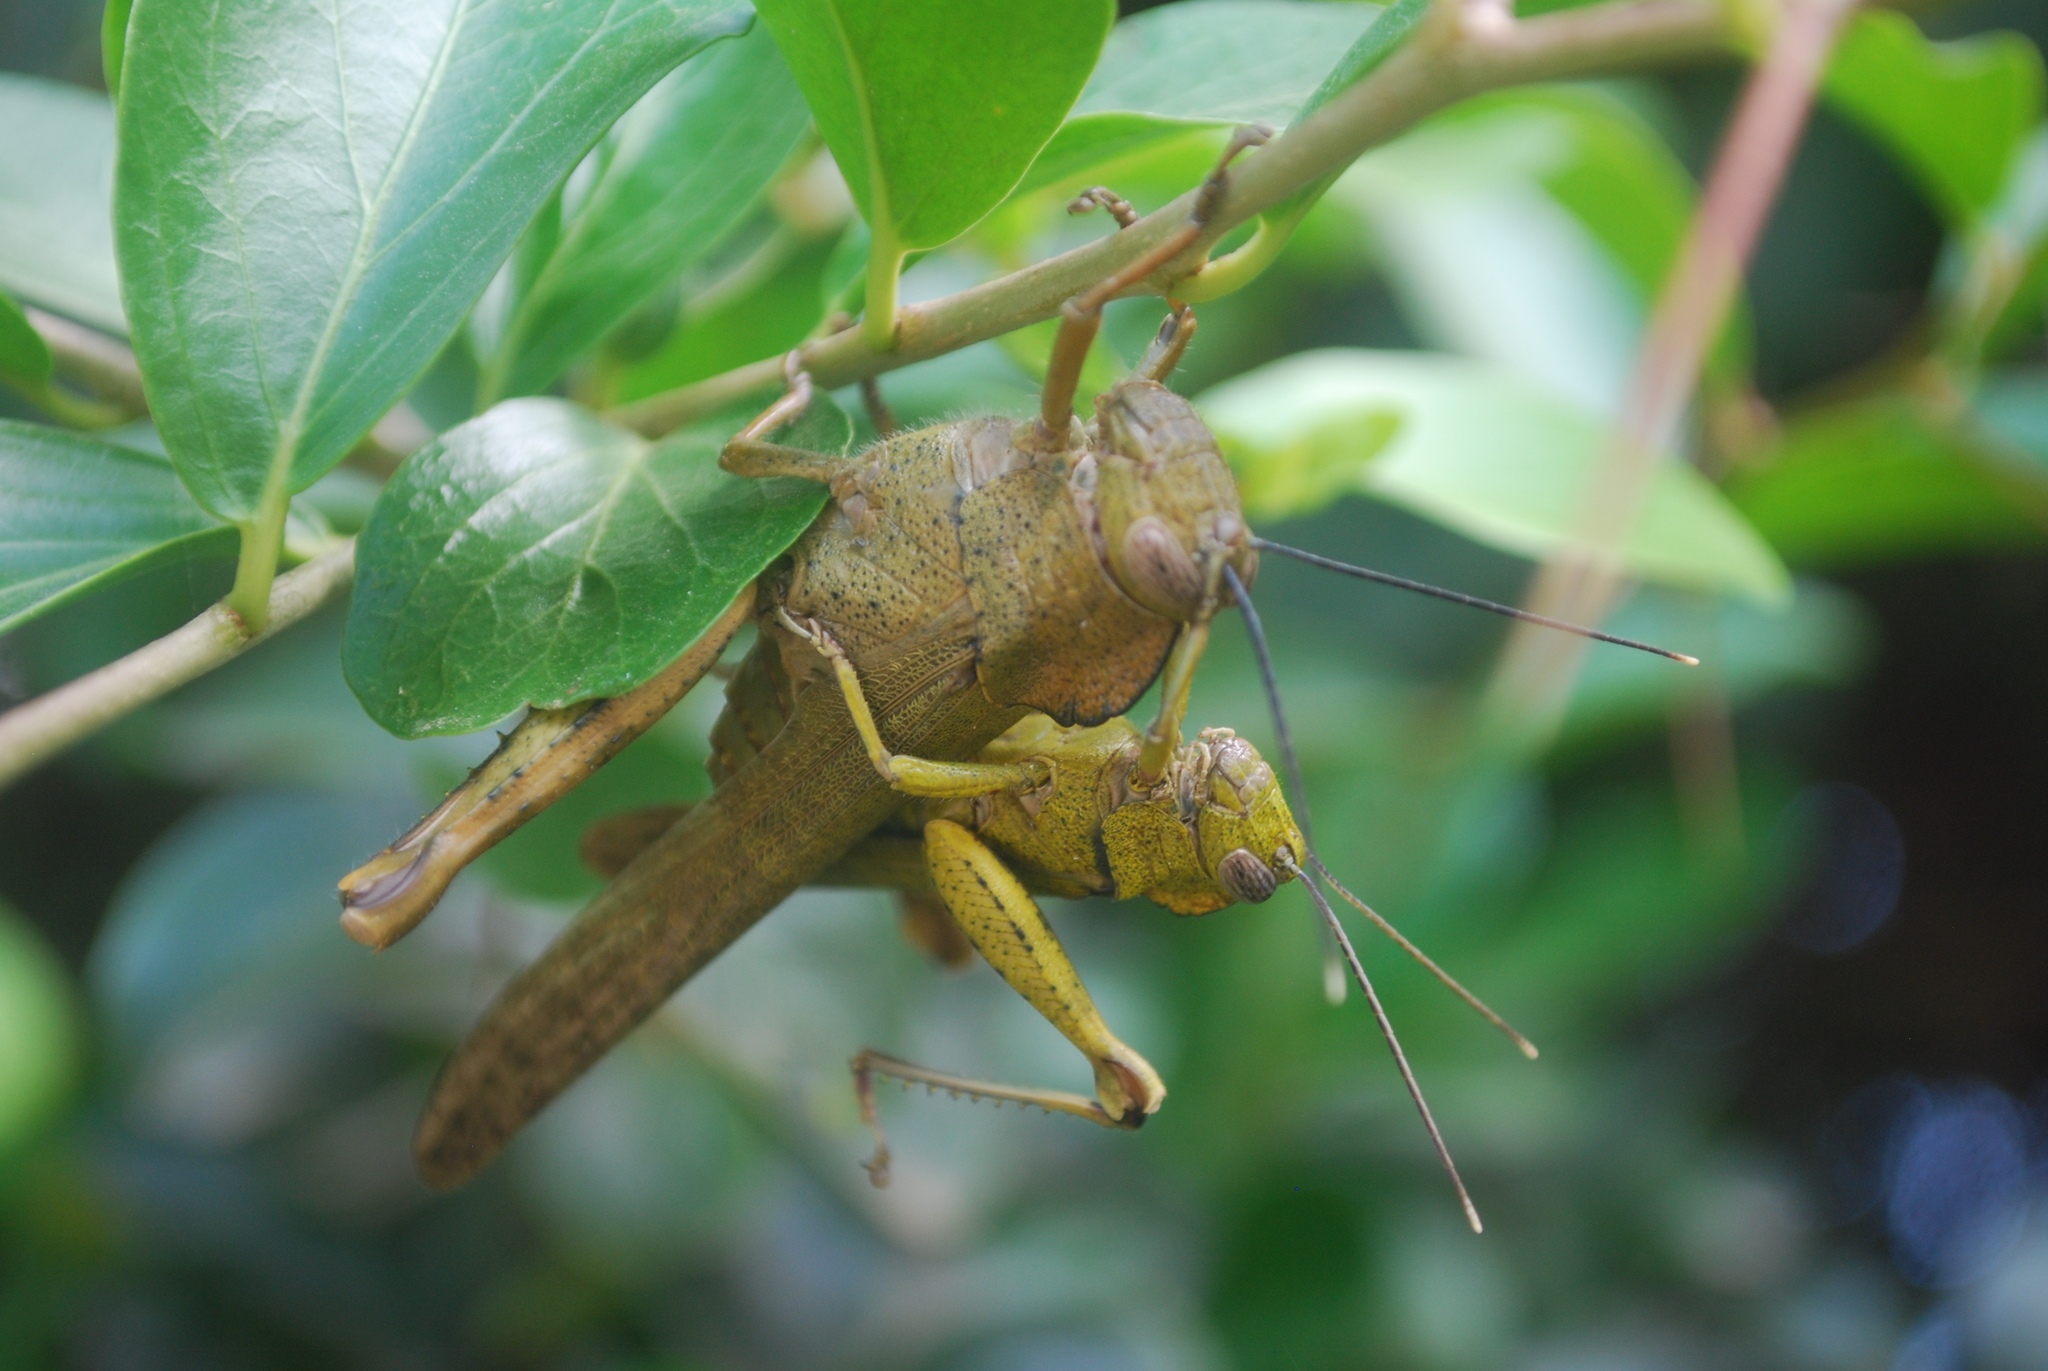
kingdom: Animalia
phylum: Arthropoda
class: Insecta
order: Orthoptera
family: Acrididae
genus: Abisares
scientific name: Abisares viridipenne
